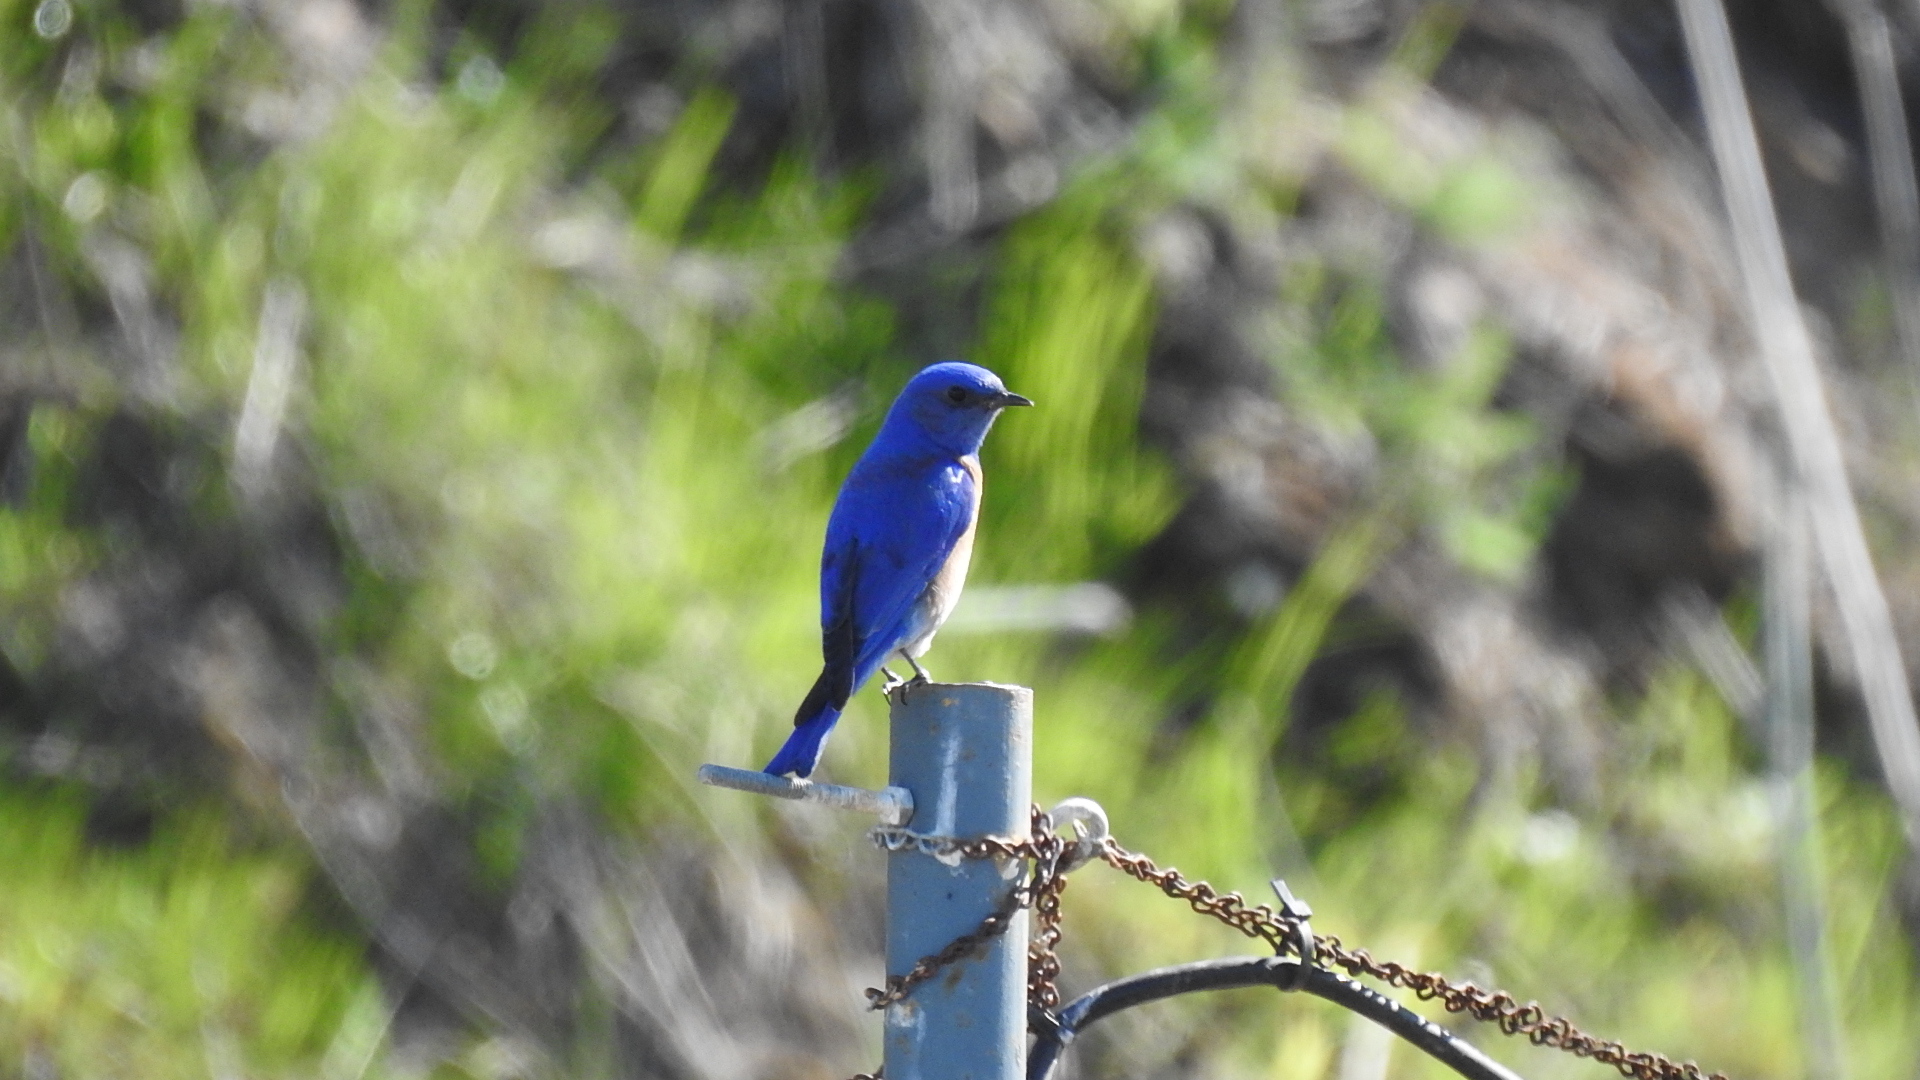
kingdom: Animalia
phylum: Chordata
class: Aves
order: Passeriformes
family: Turdidae
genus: Sialia
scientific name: Sialia mexicana
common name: Western bluebird
